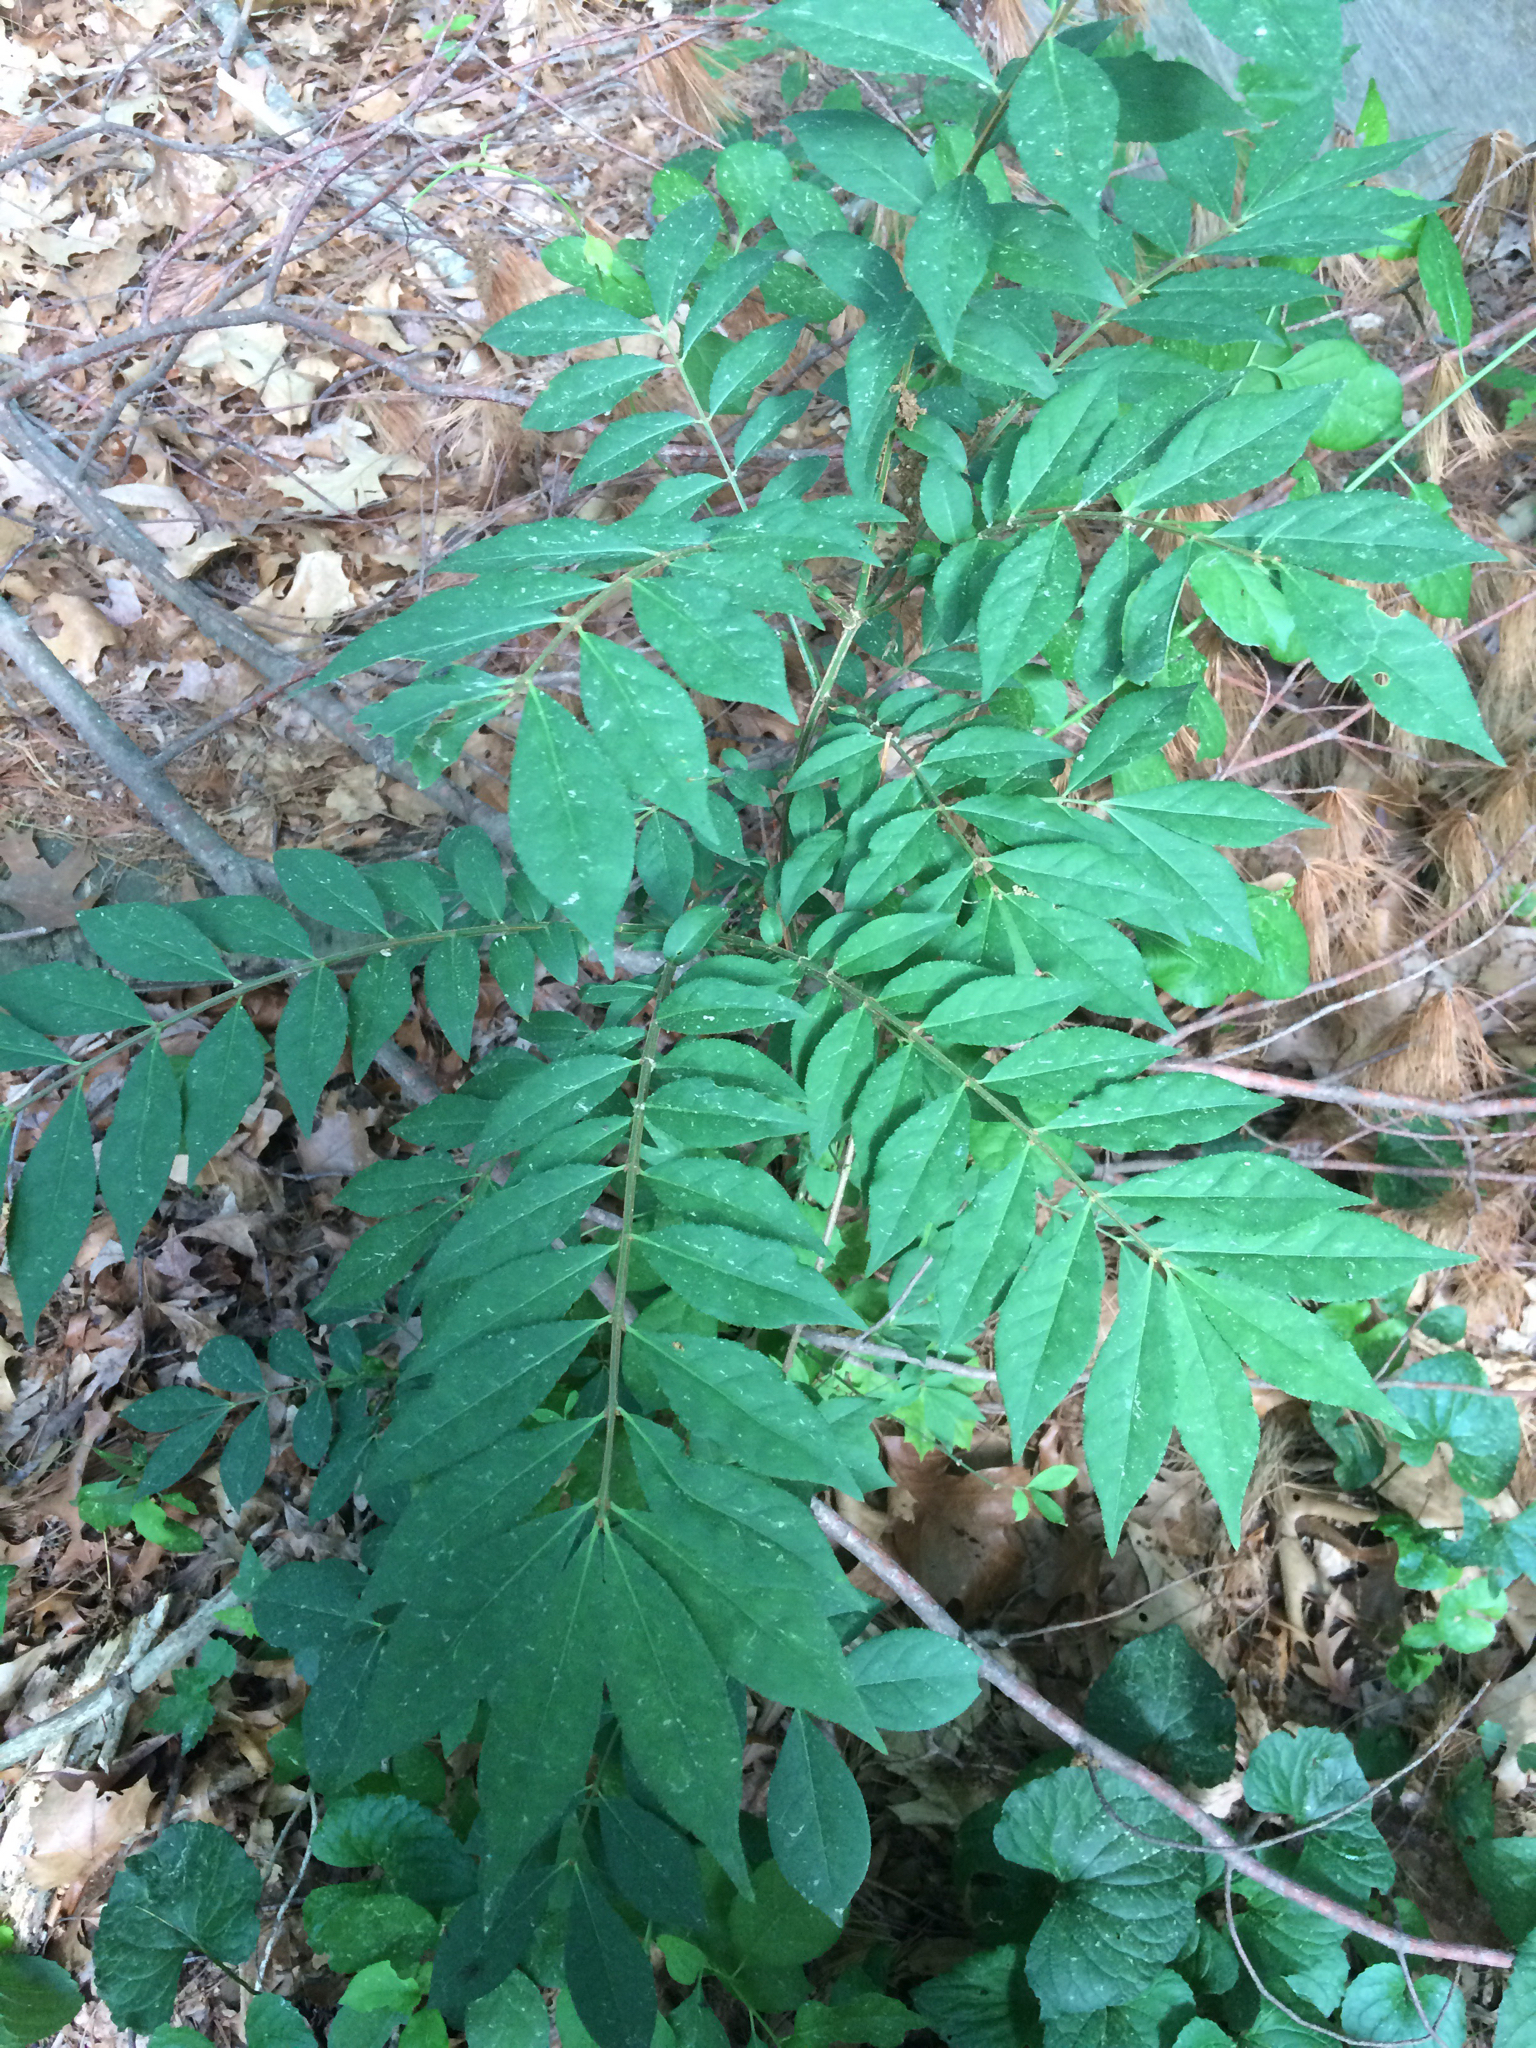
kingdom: Plantae
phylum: Tracheophyta
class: Magnoliopsida
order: Celastrales
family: Celastraceae
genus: Euonymus
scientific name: Euonymus alatus
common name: Winged euonymus
